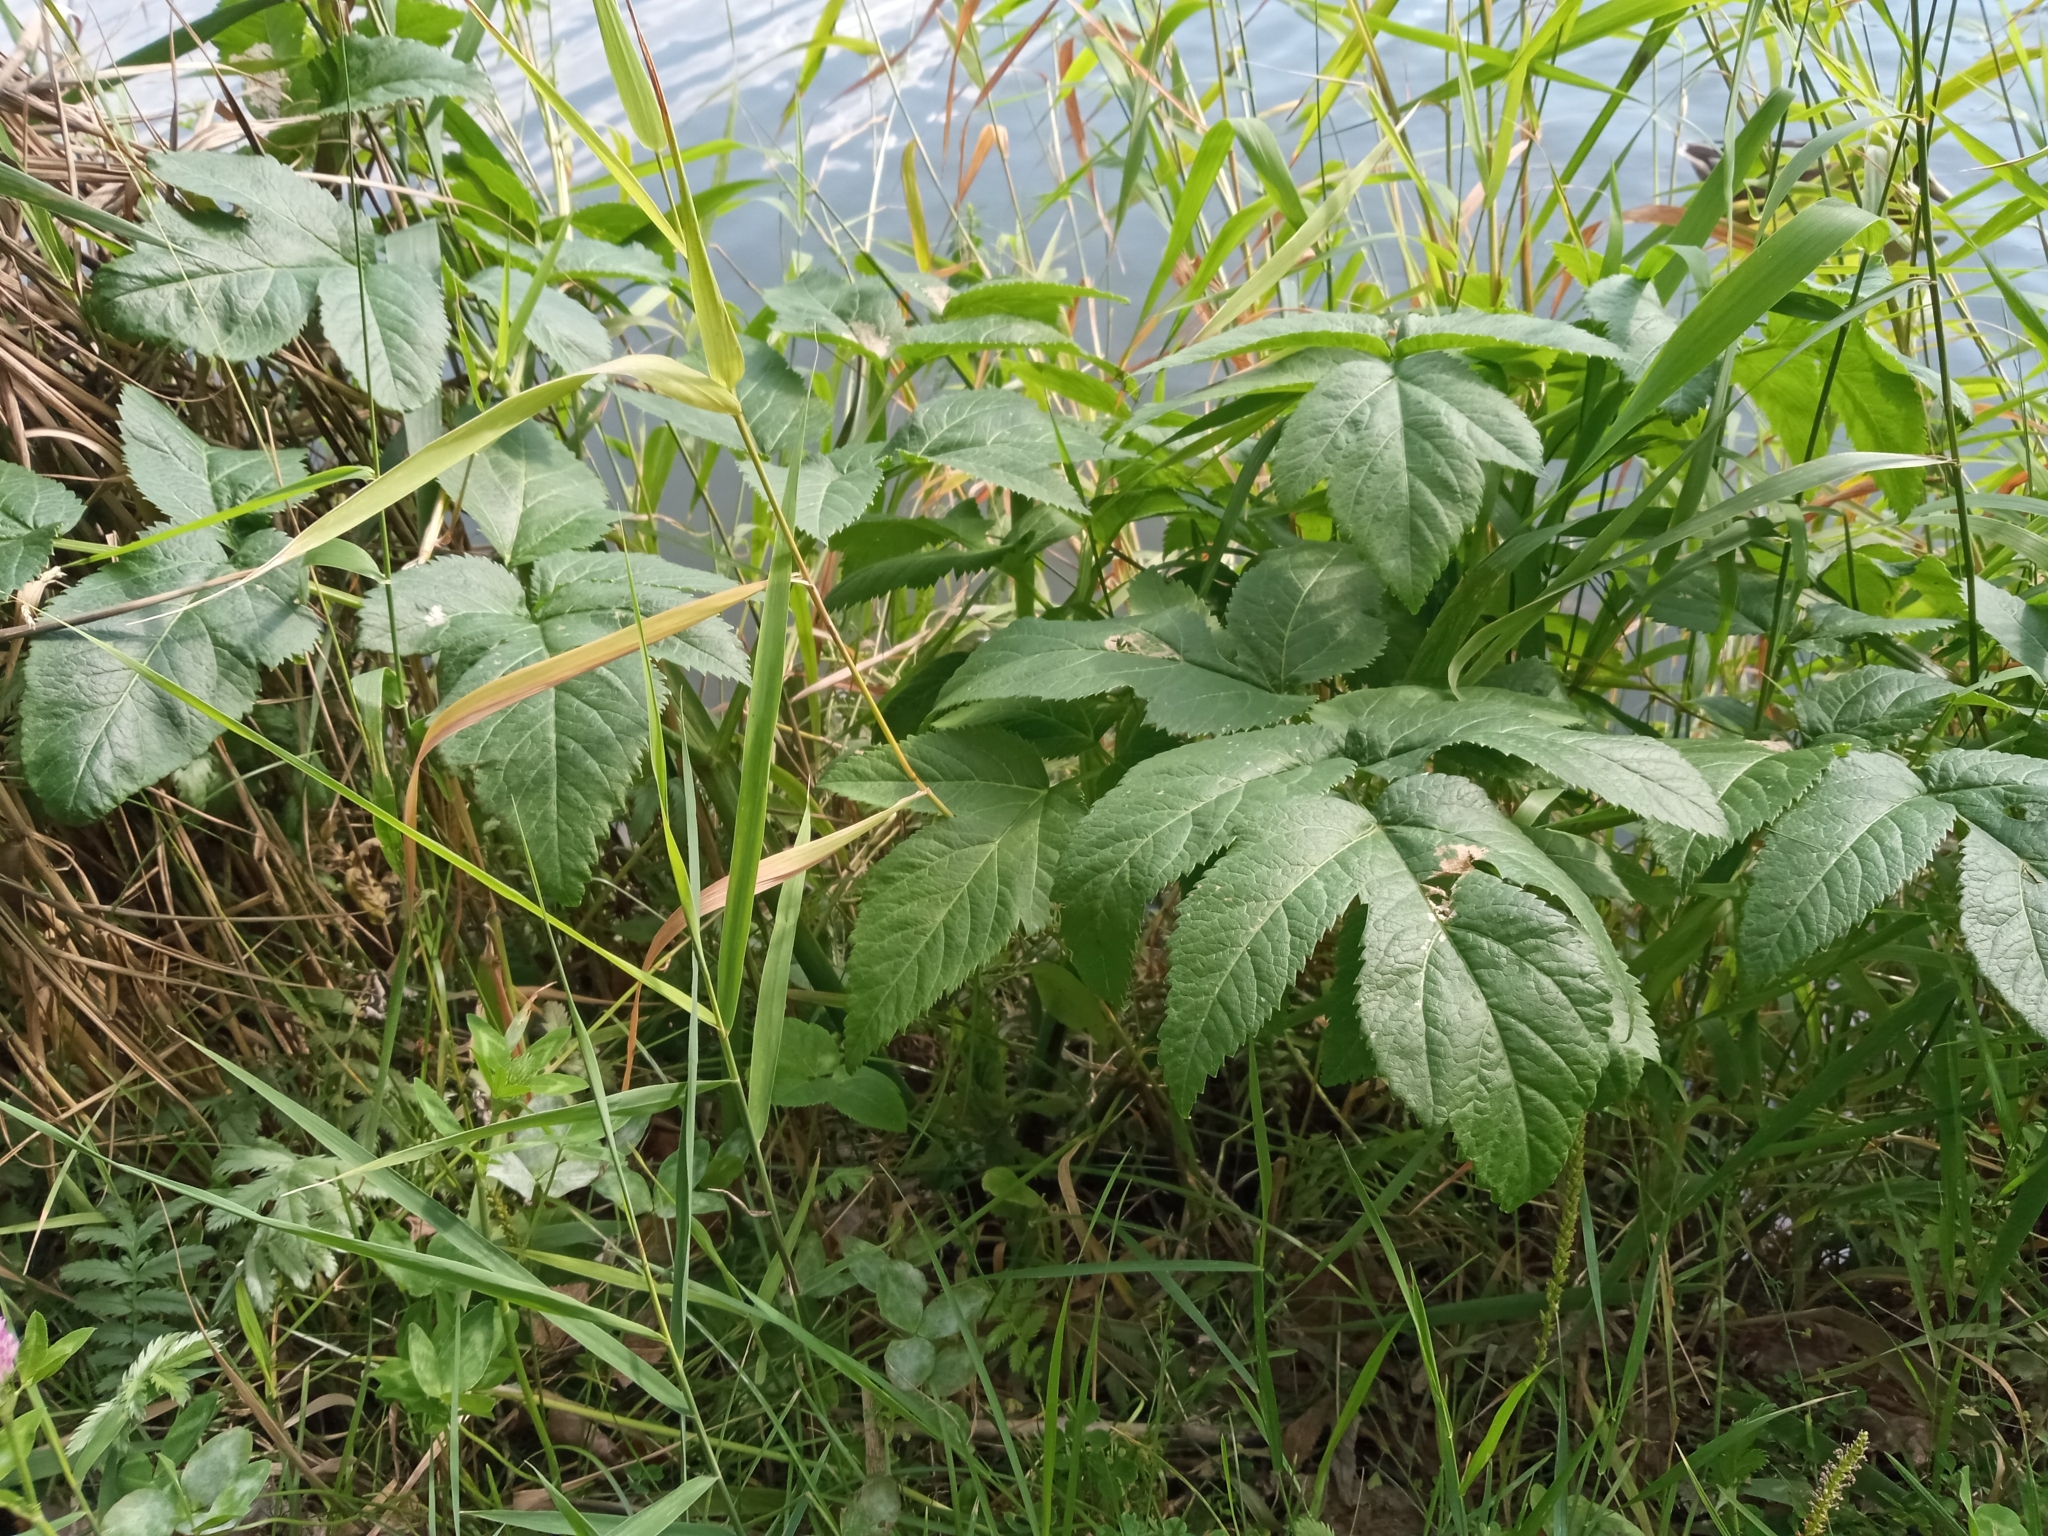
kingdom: Plantae
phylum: Tracheophyta
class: Magnoliopsida
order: Apiales
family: Apiaceae
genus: Angelica
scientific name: Angelica archangelica
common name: Garden angelica
